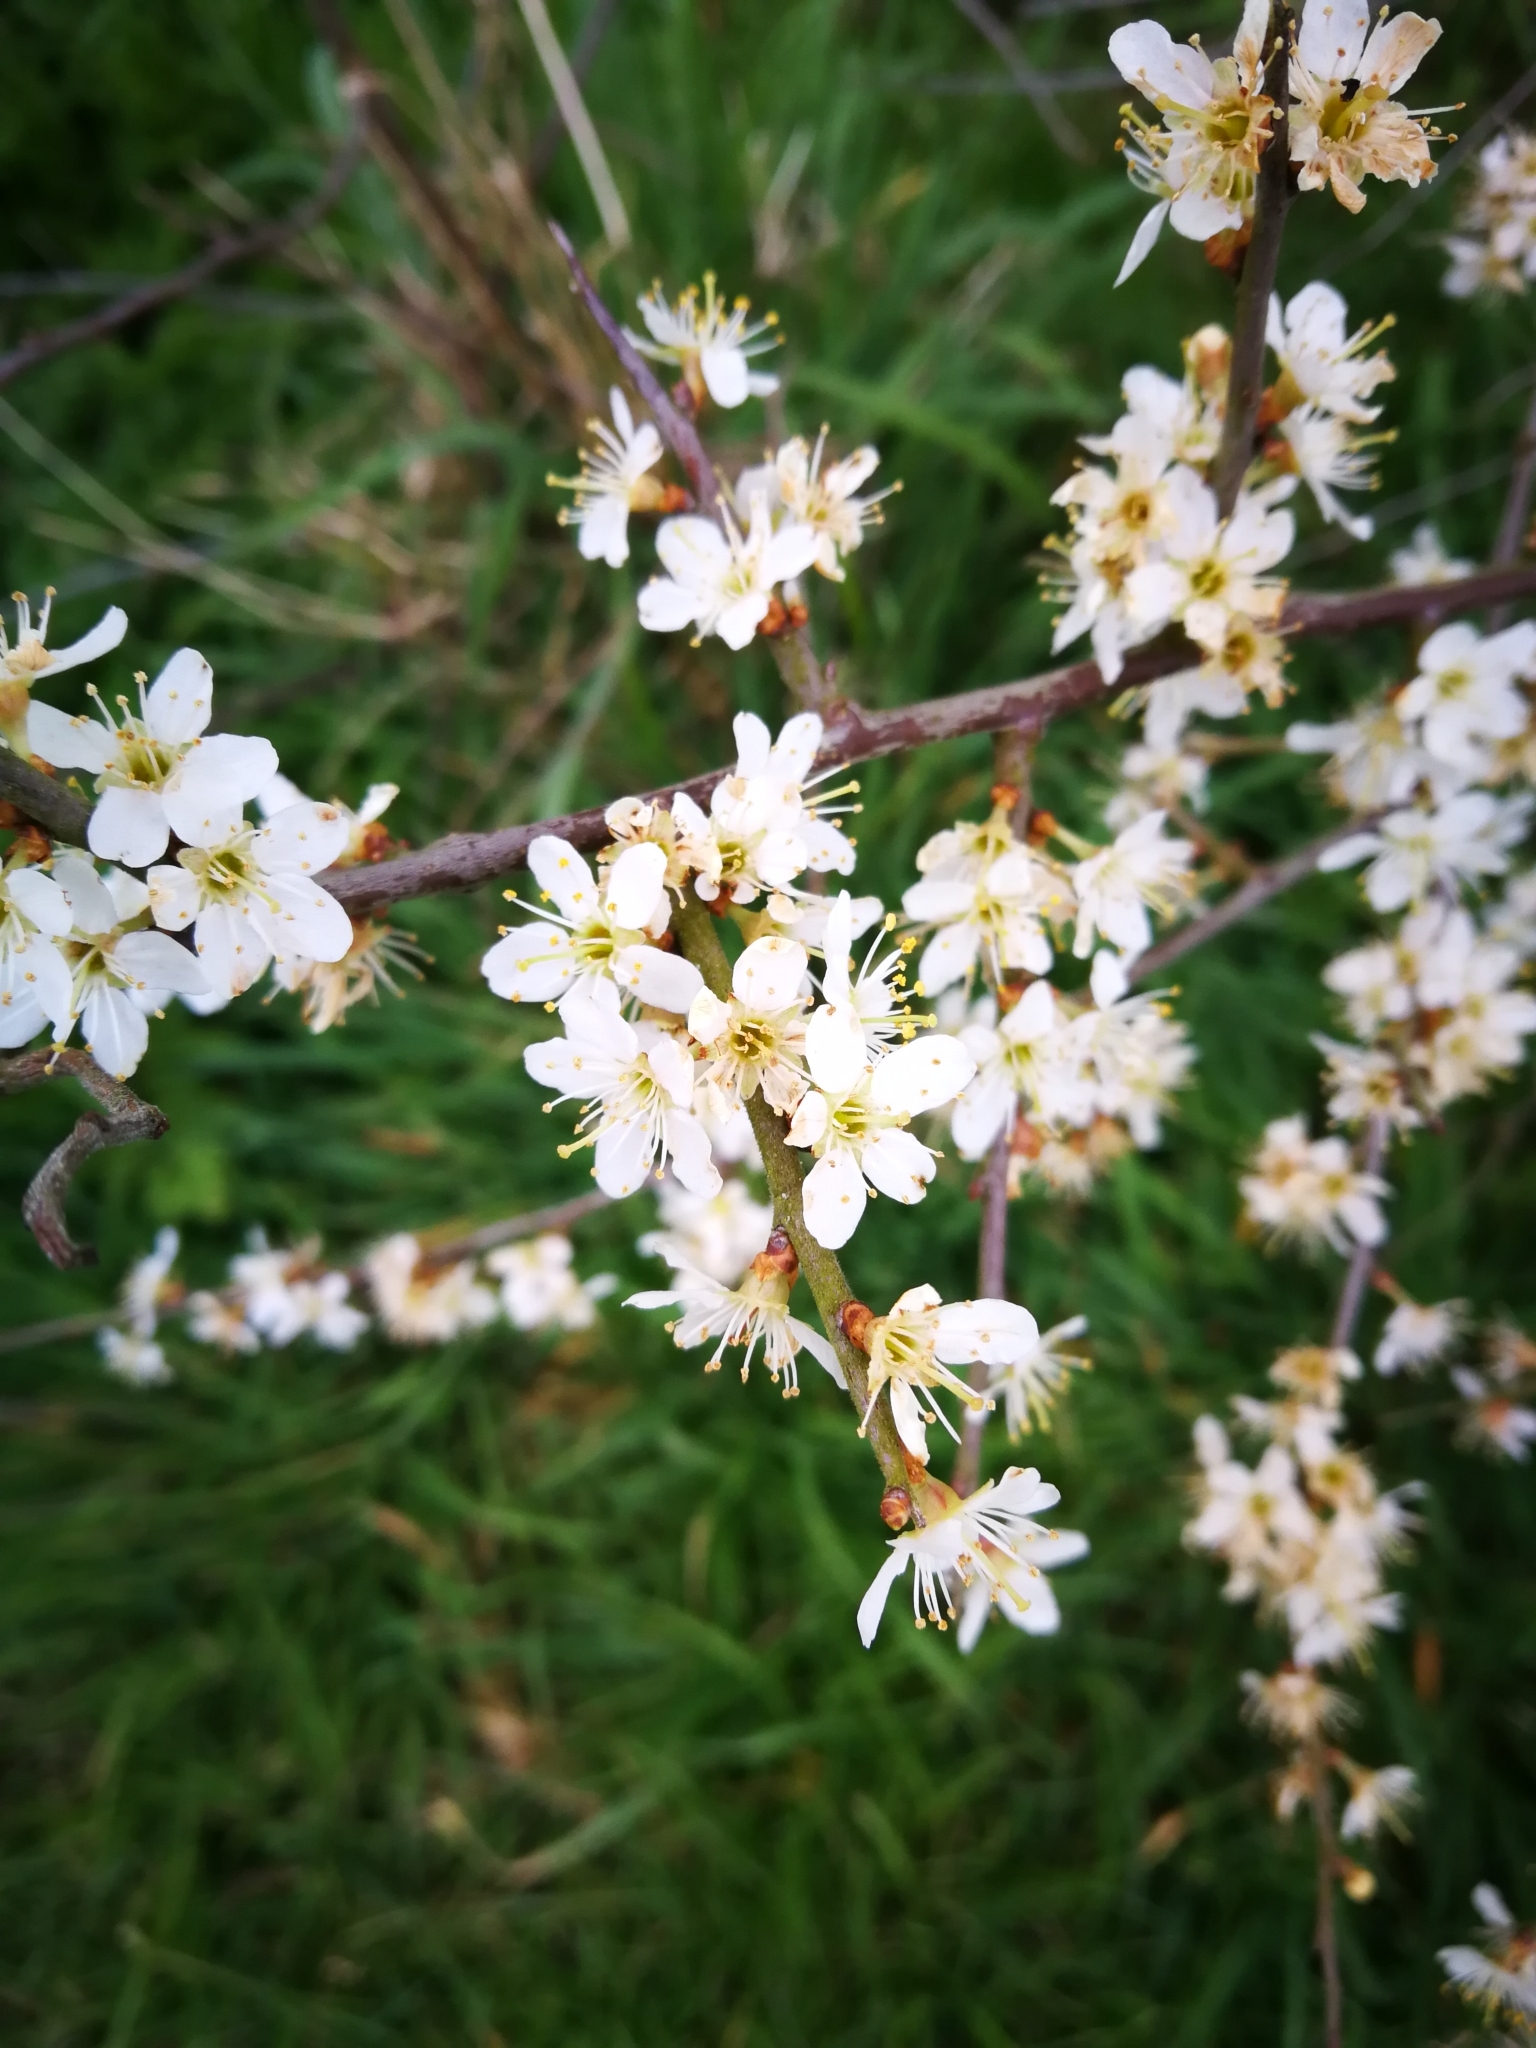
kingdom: Plantae
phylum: Tracheophyta
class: Magnoliopsida
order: Rosales
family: Rosaceae
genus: Prunus
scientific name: Prunus spinosa
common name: Blackthorn
